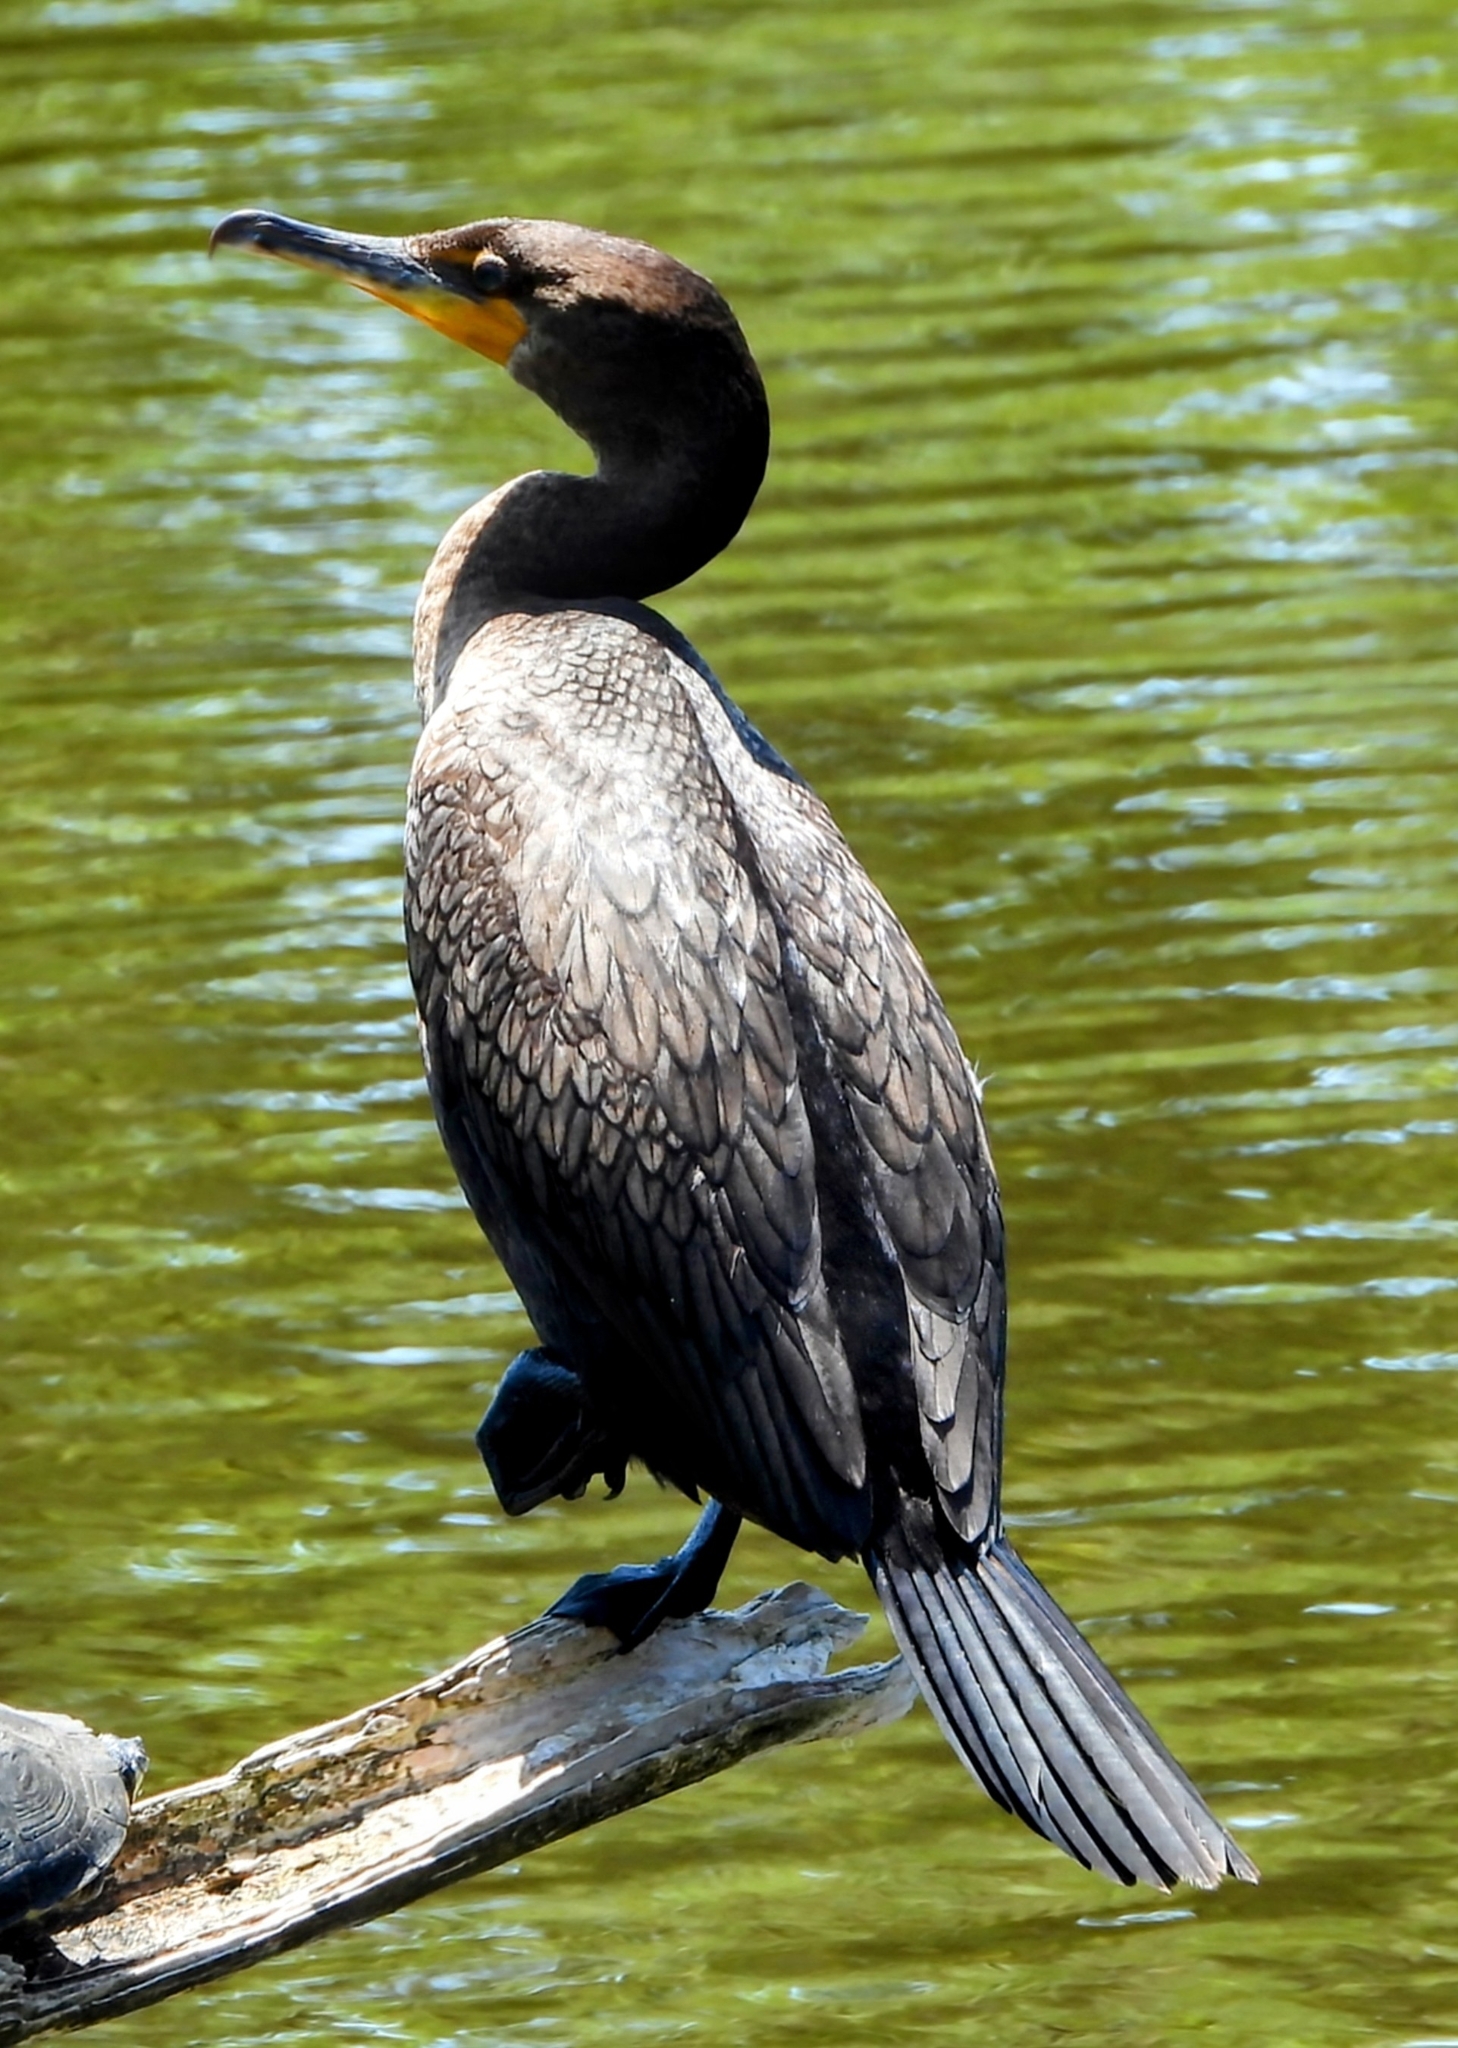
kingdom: Animalia
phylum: Chordata
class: Aves
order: Suliformes
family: Phalacrocoracidae
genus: Phalacrocorax
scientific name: Phalacrocorax auritus
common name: Double-crested cormorant
